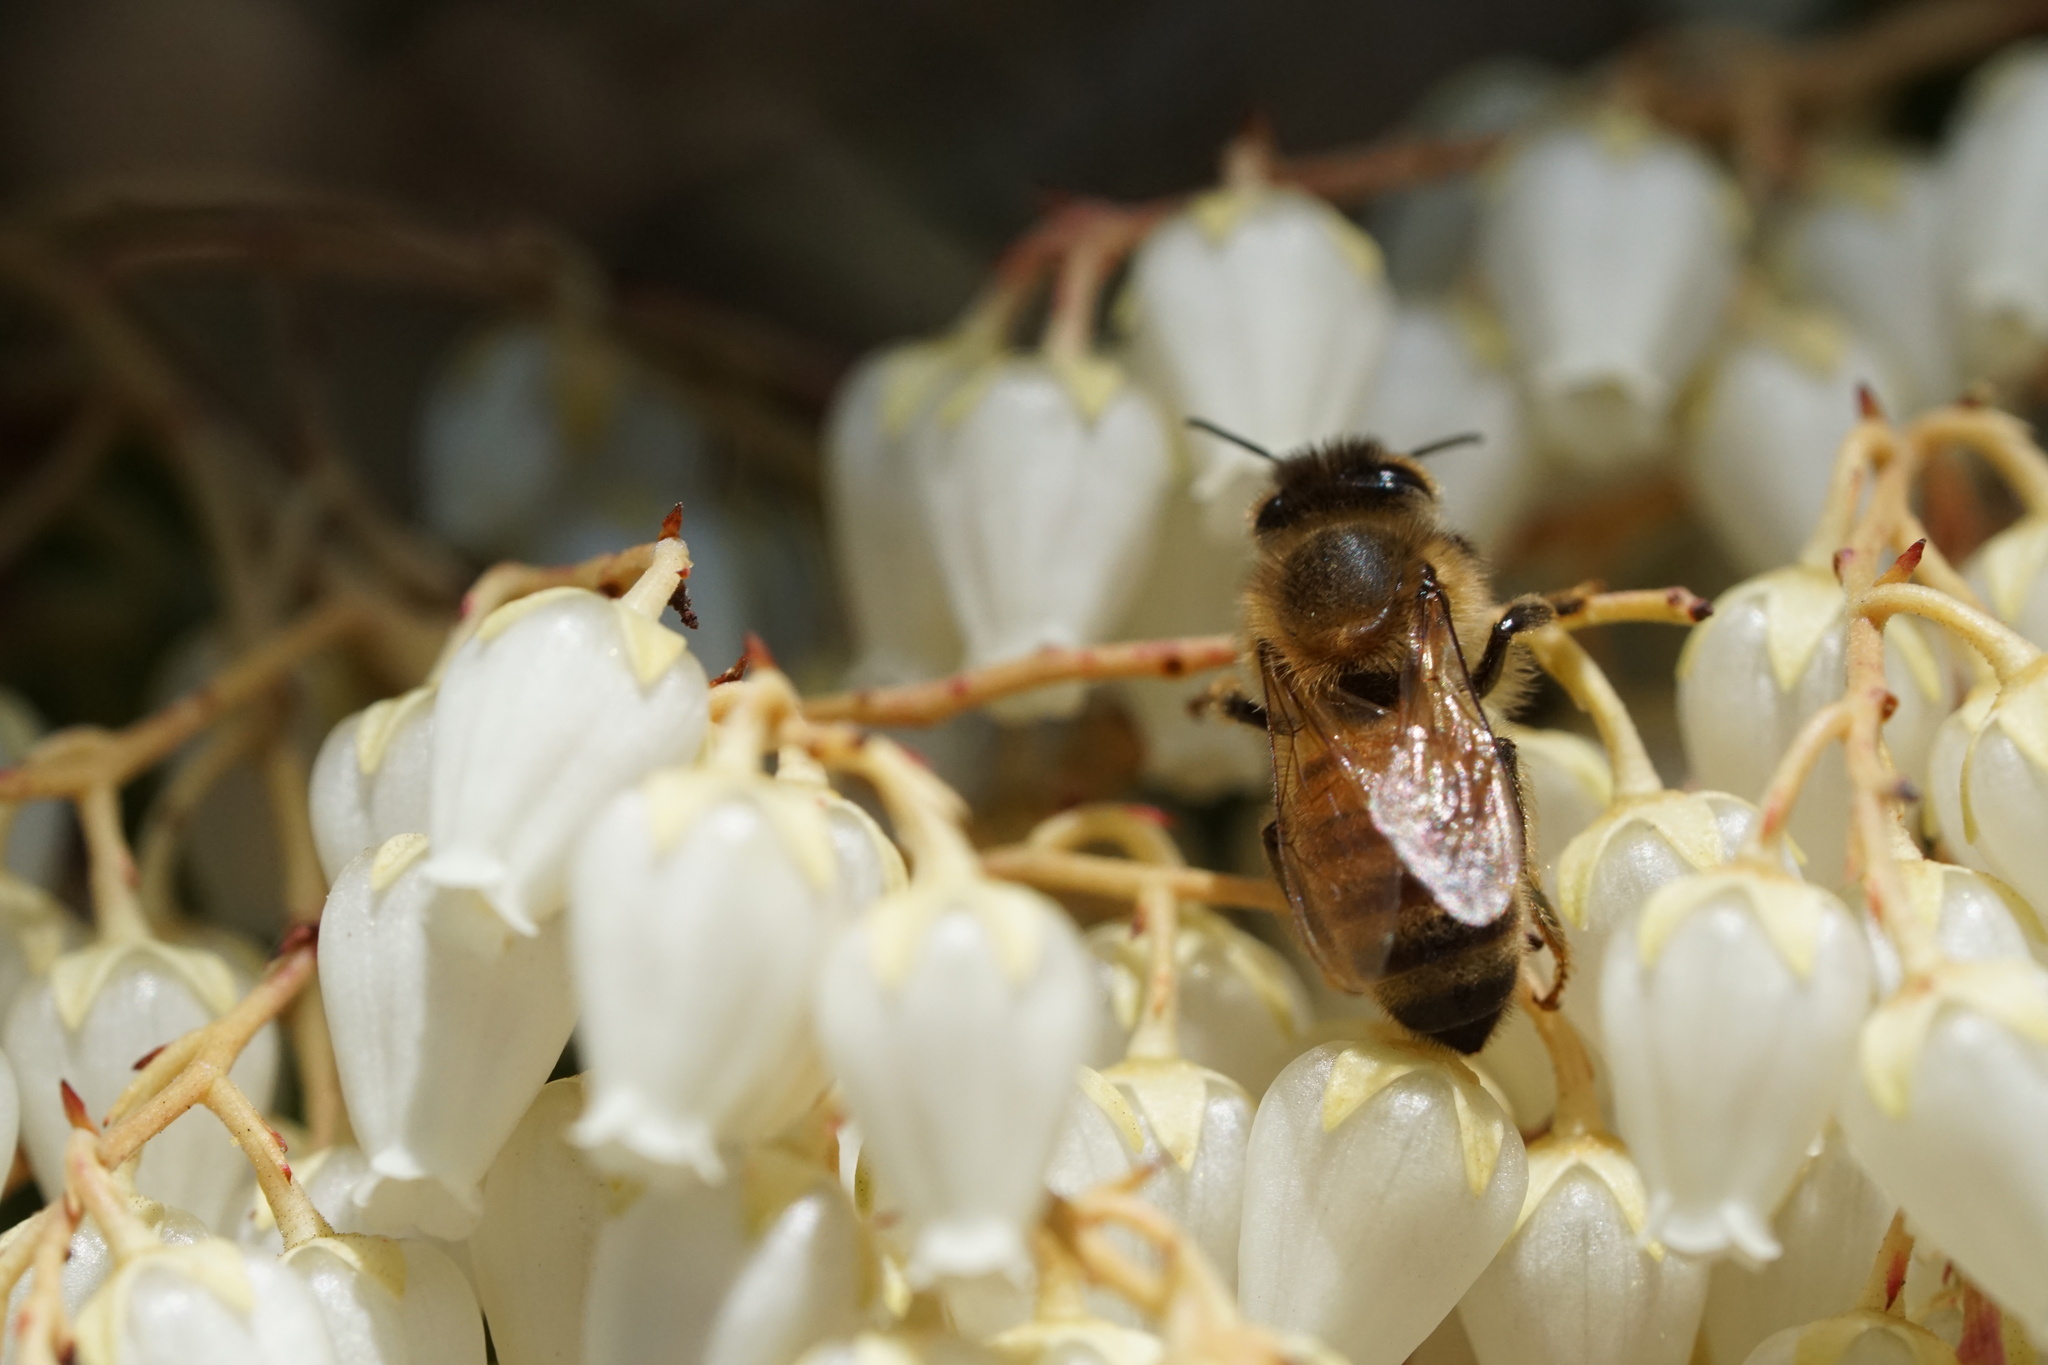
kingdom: Animalia
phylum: Arthropoda
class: Insecta
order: Hymenoptera
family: Apidae
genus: Apis
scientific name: Apis mellifera
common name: Honey bee
